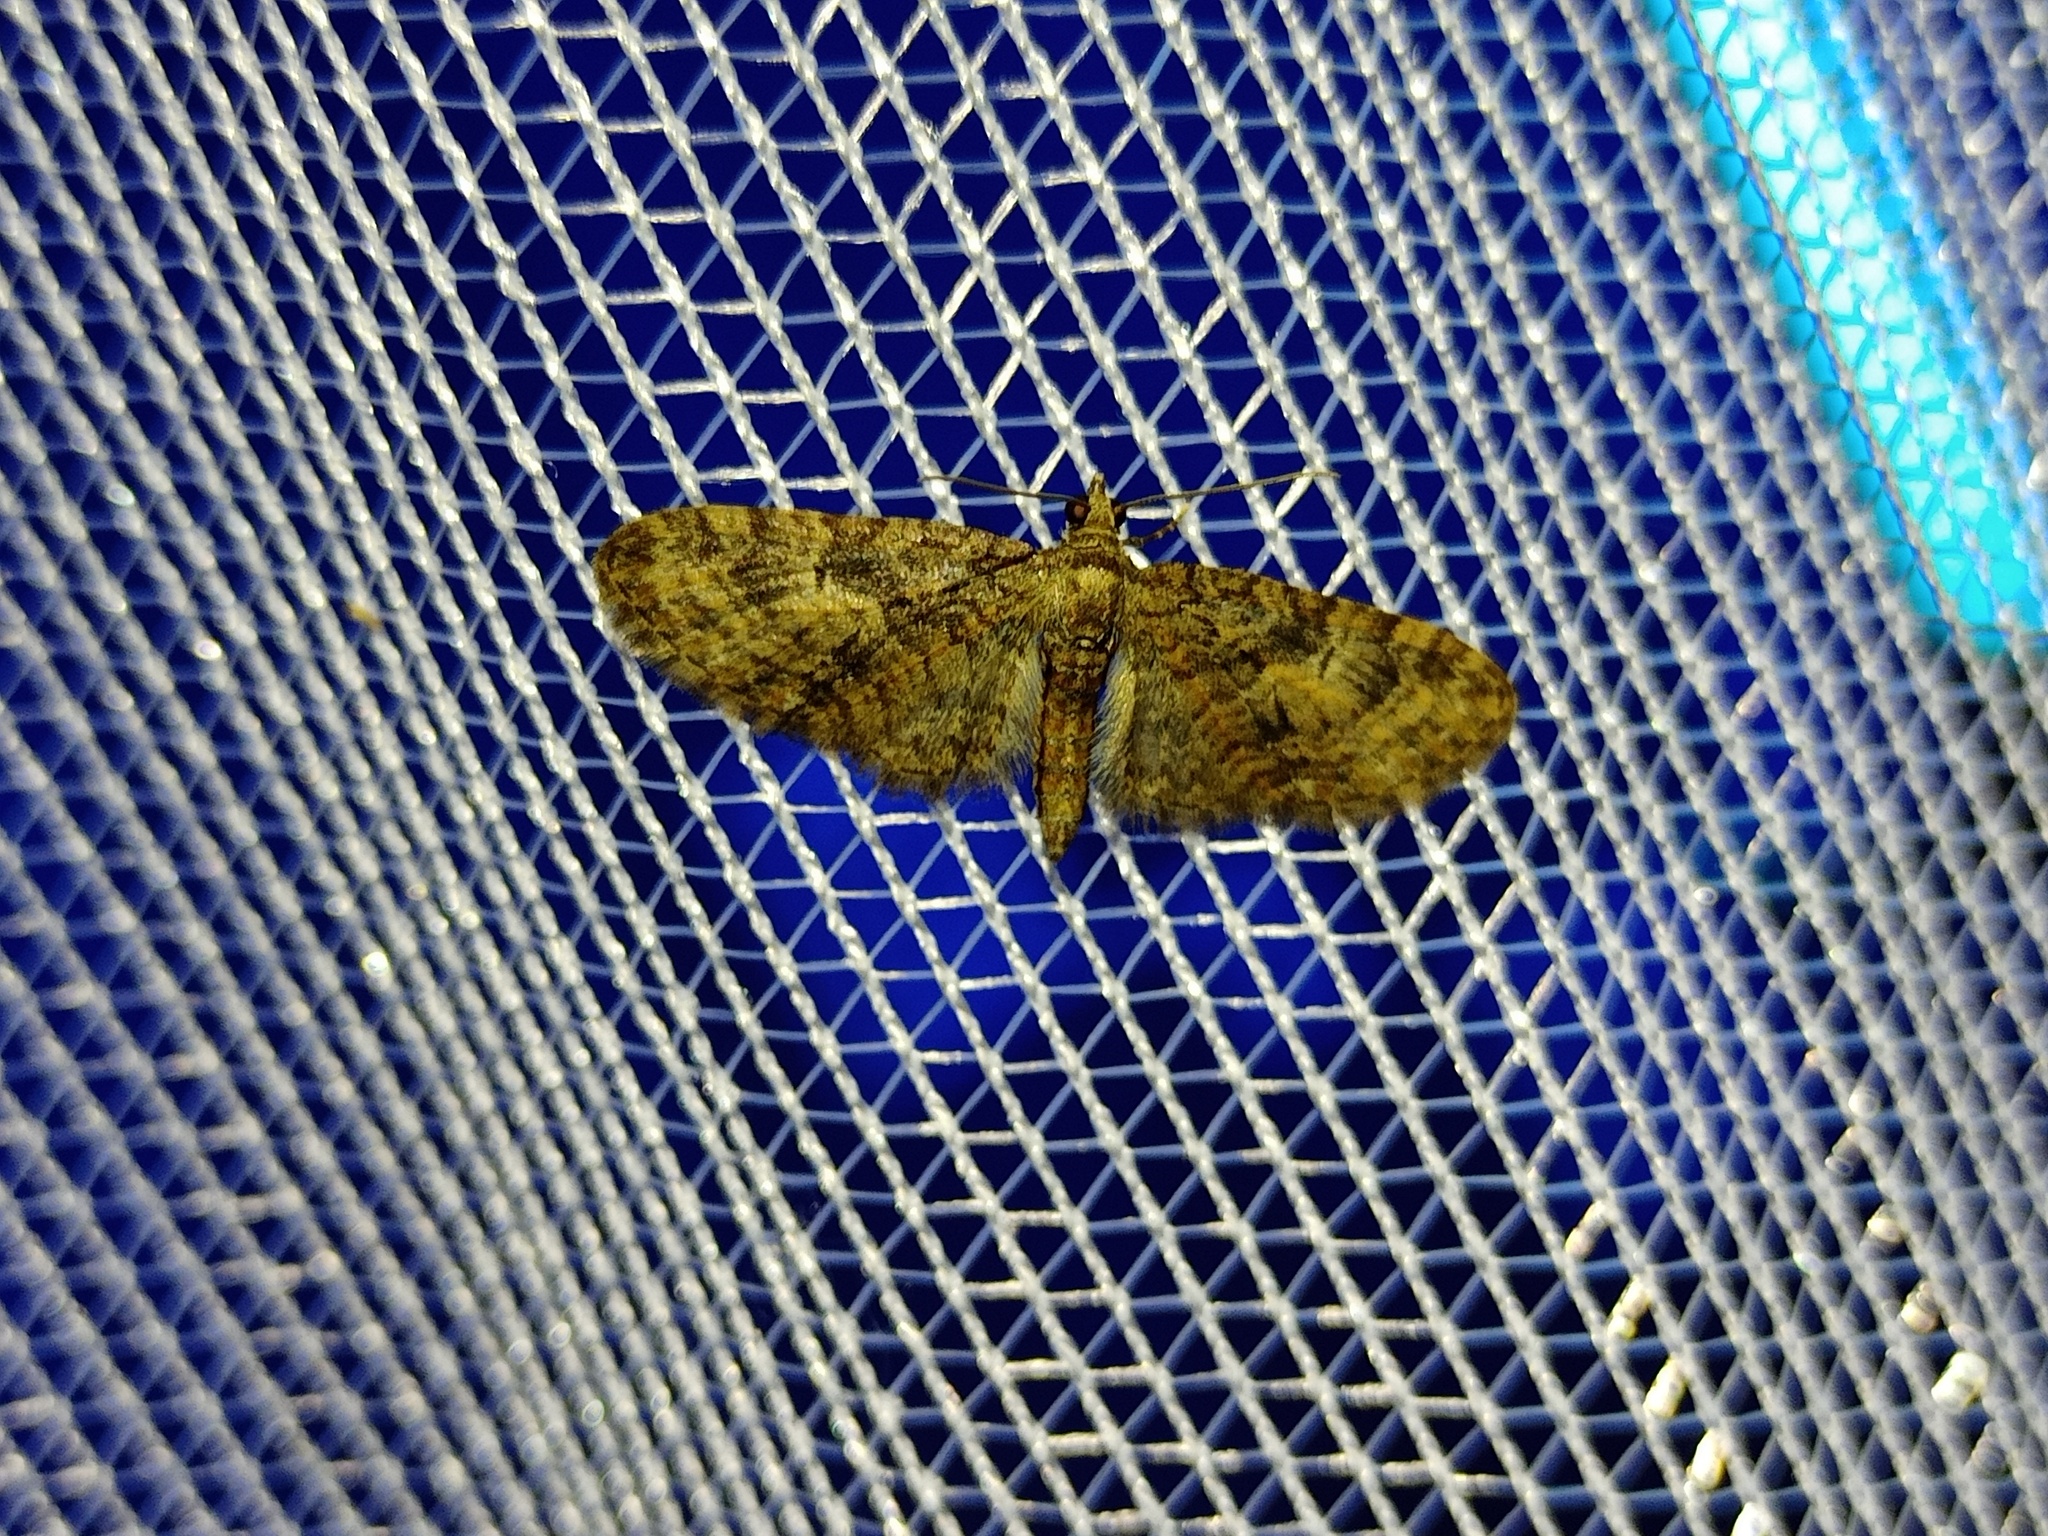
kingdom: Animalia
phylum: Arthropoda
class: Insecta
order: Lepidoptera
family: Geometridae
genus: Eupithecia
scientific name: Eupithecia abbreviata
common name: Brindled pug
